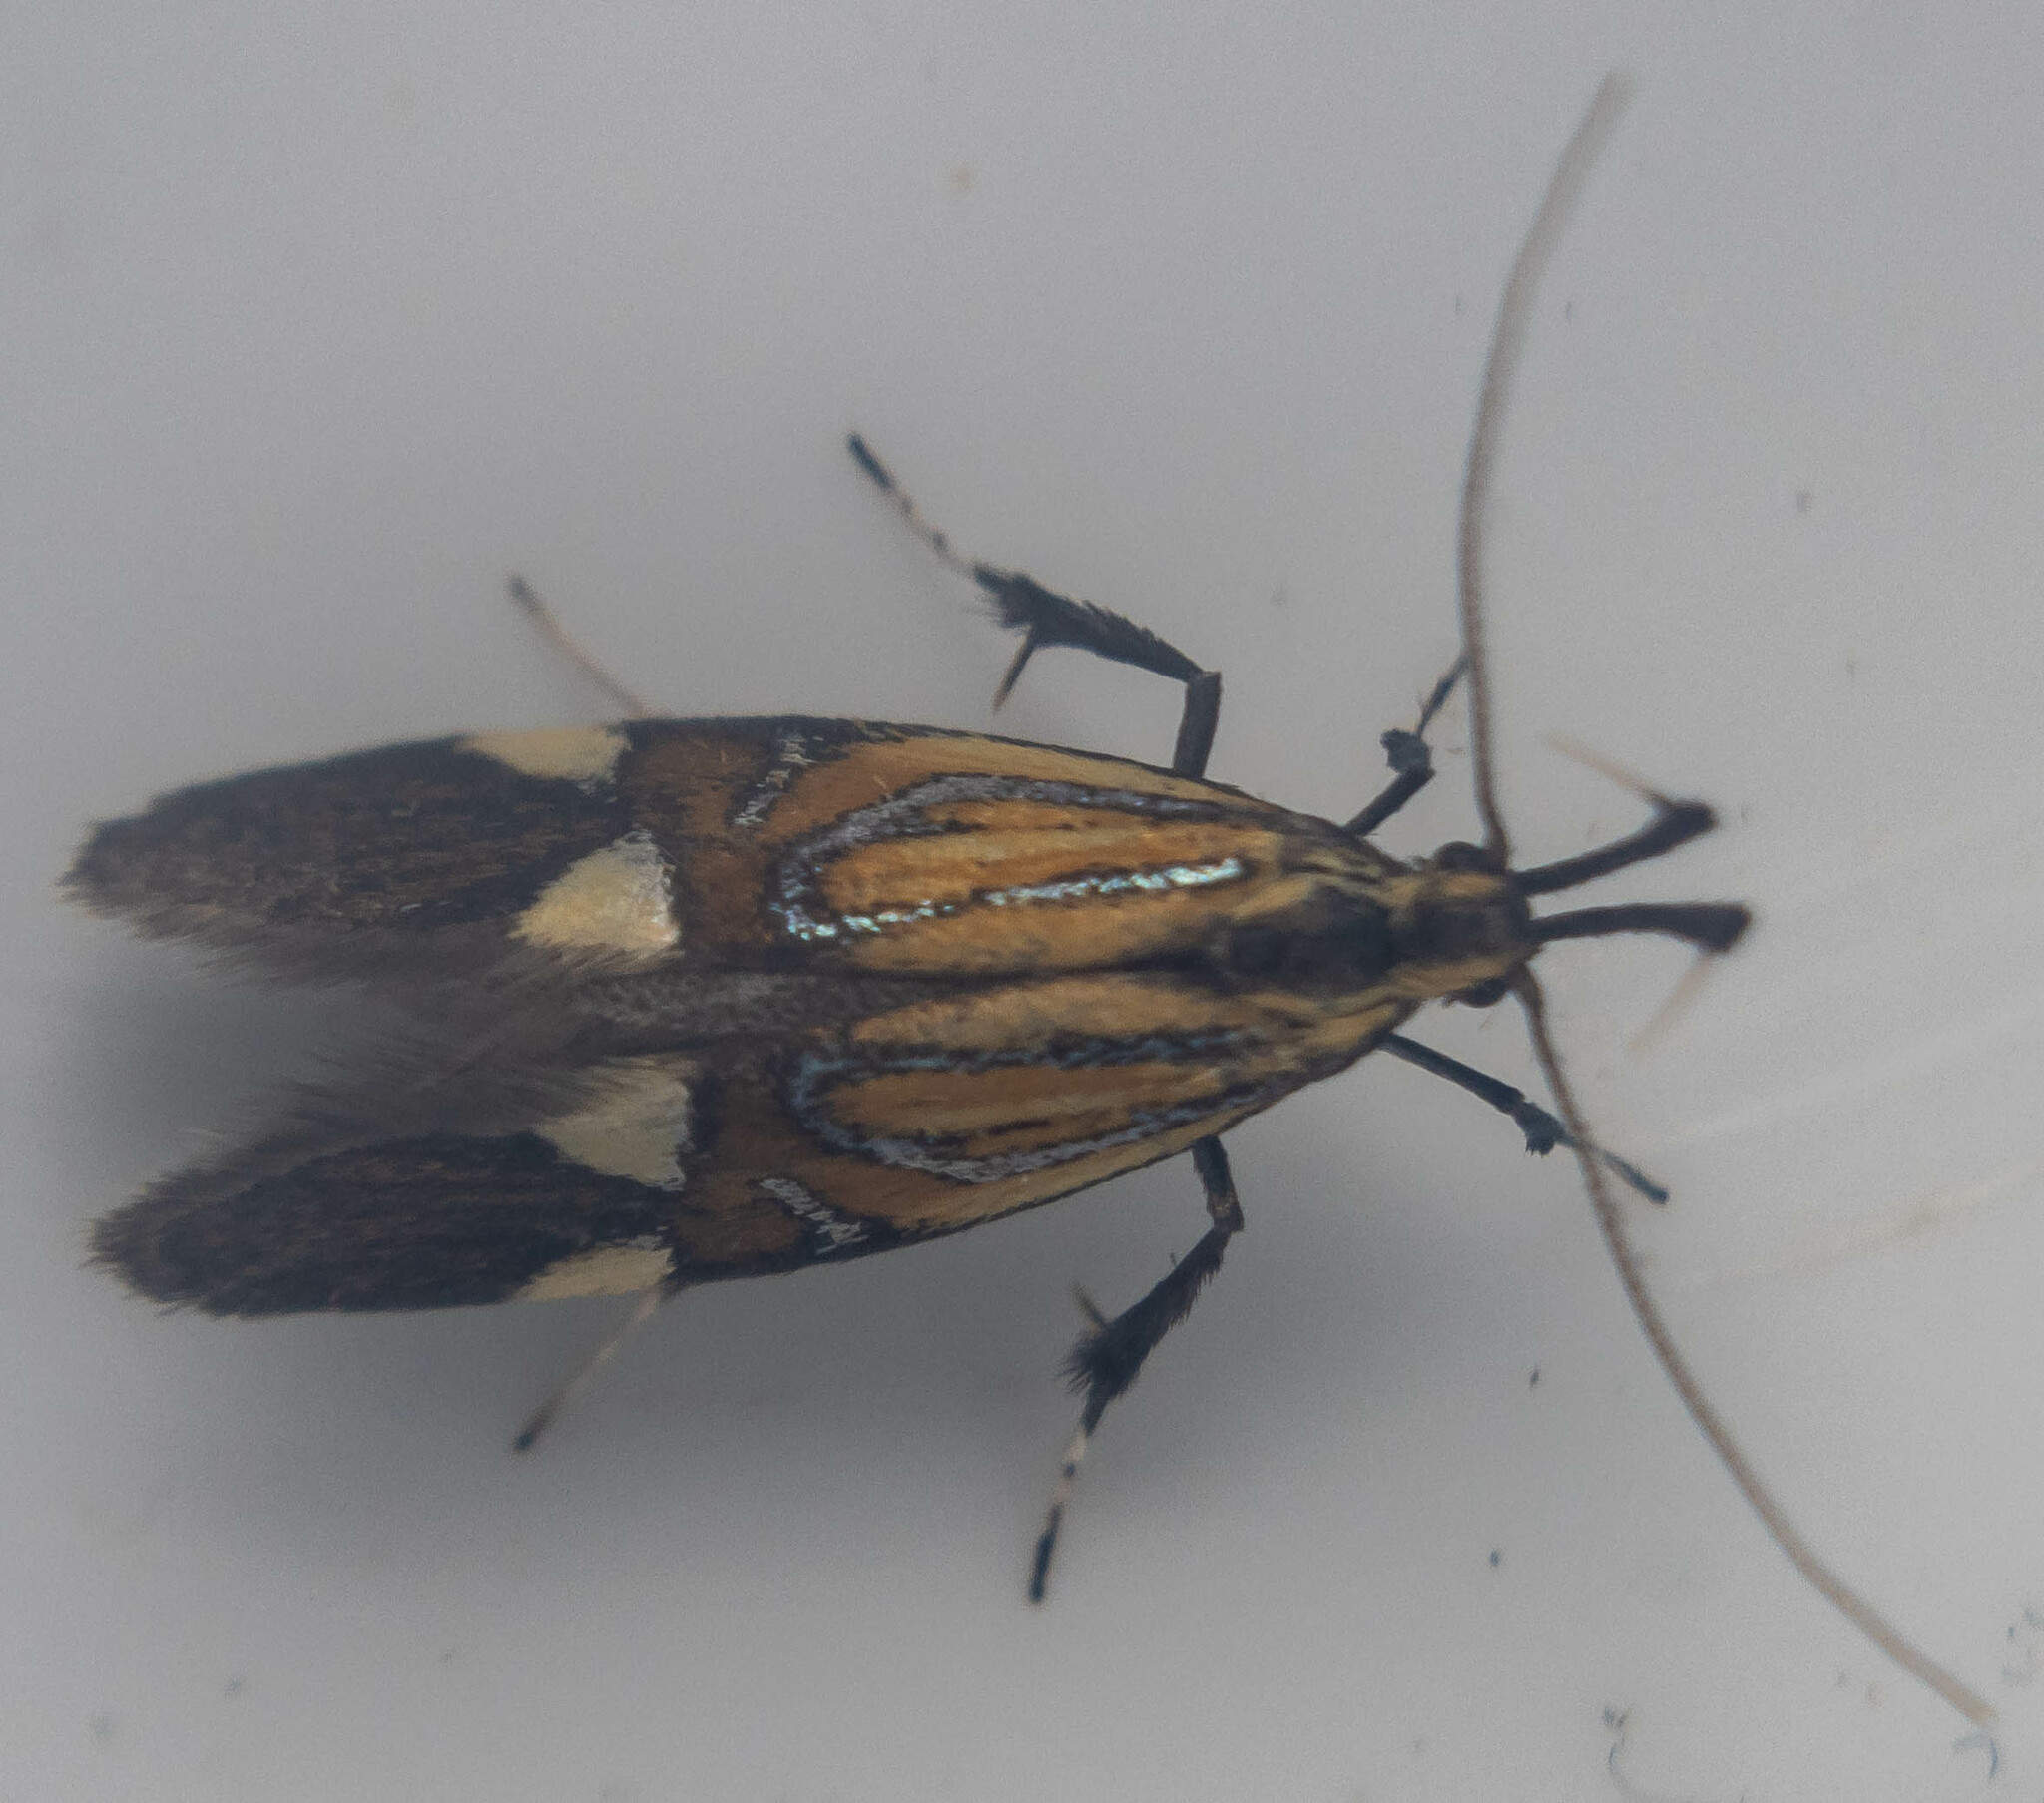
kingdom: Animalia
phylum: Arthropoda
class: Insecta
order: Lepidoptera
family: Oecophoridae
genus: Oecophora
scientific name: Oecophora Alabonia geoffrella
